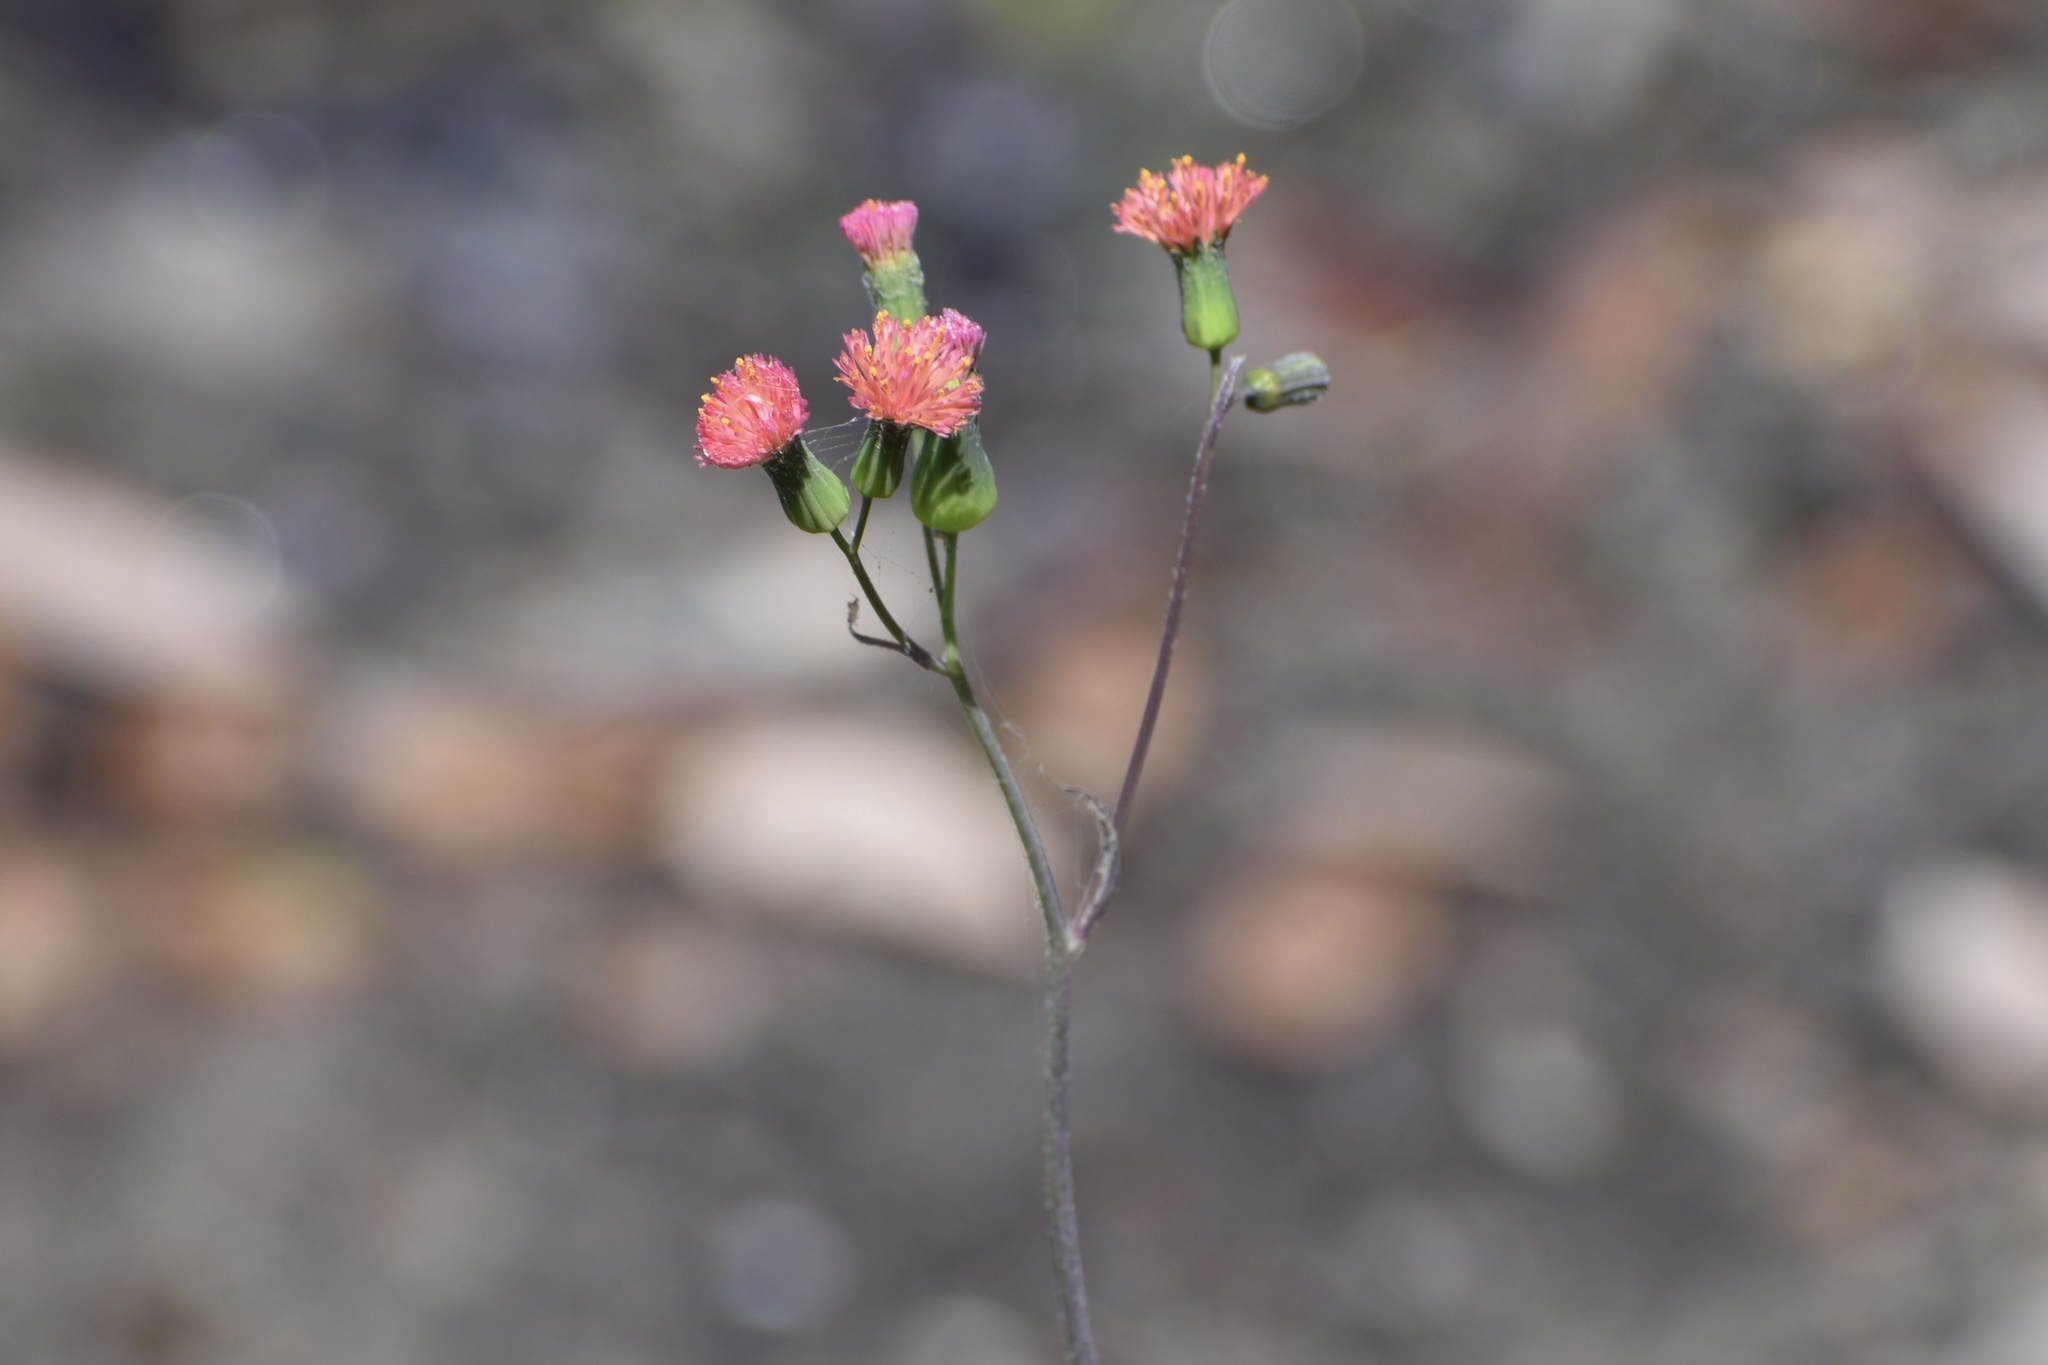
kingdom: Plantae
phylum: Tracheophyta
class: Magnoliopsida
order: Asterales
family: Asteraceae
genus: Emilia
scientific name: Emilia fosbergii
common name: Florida tasselflower
